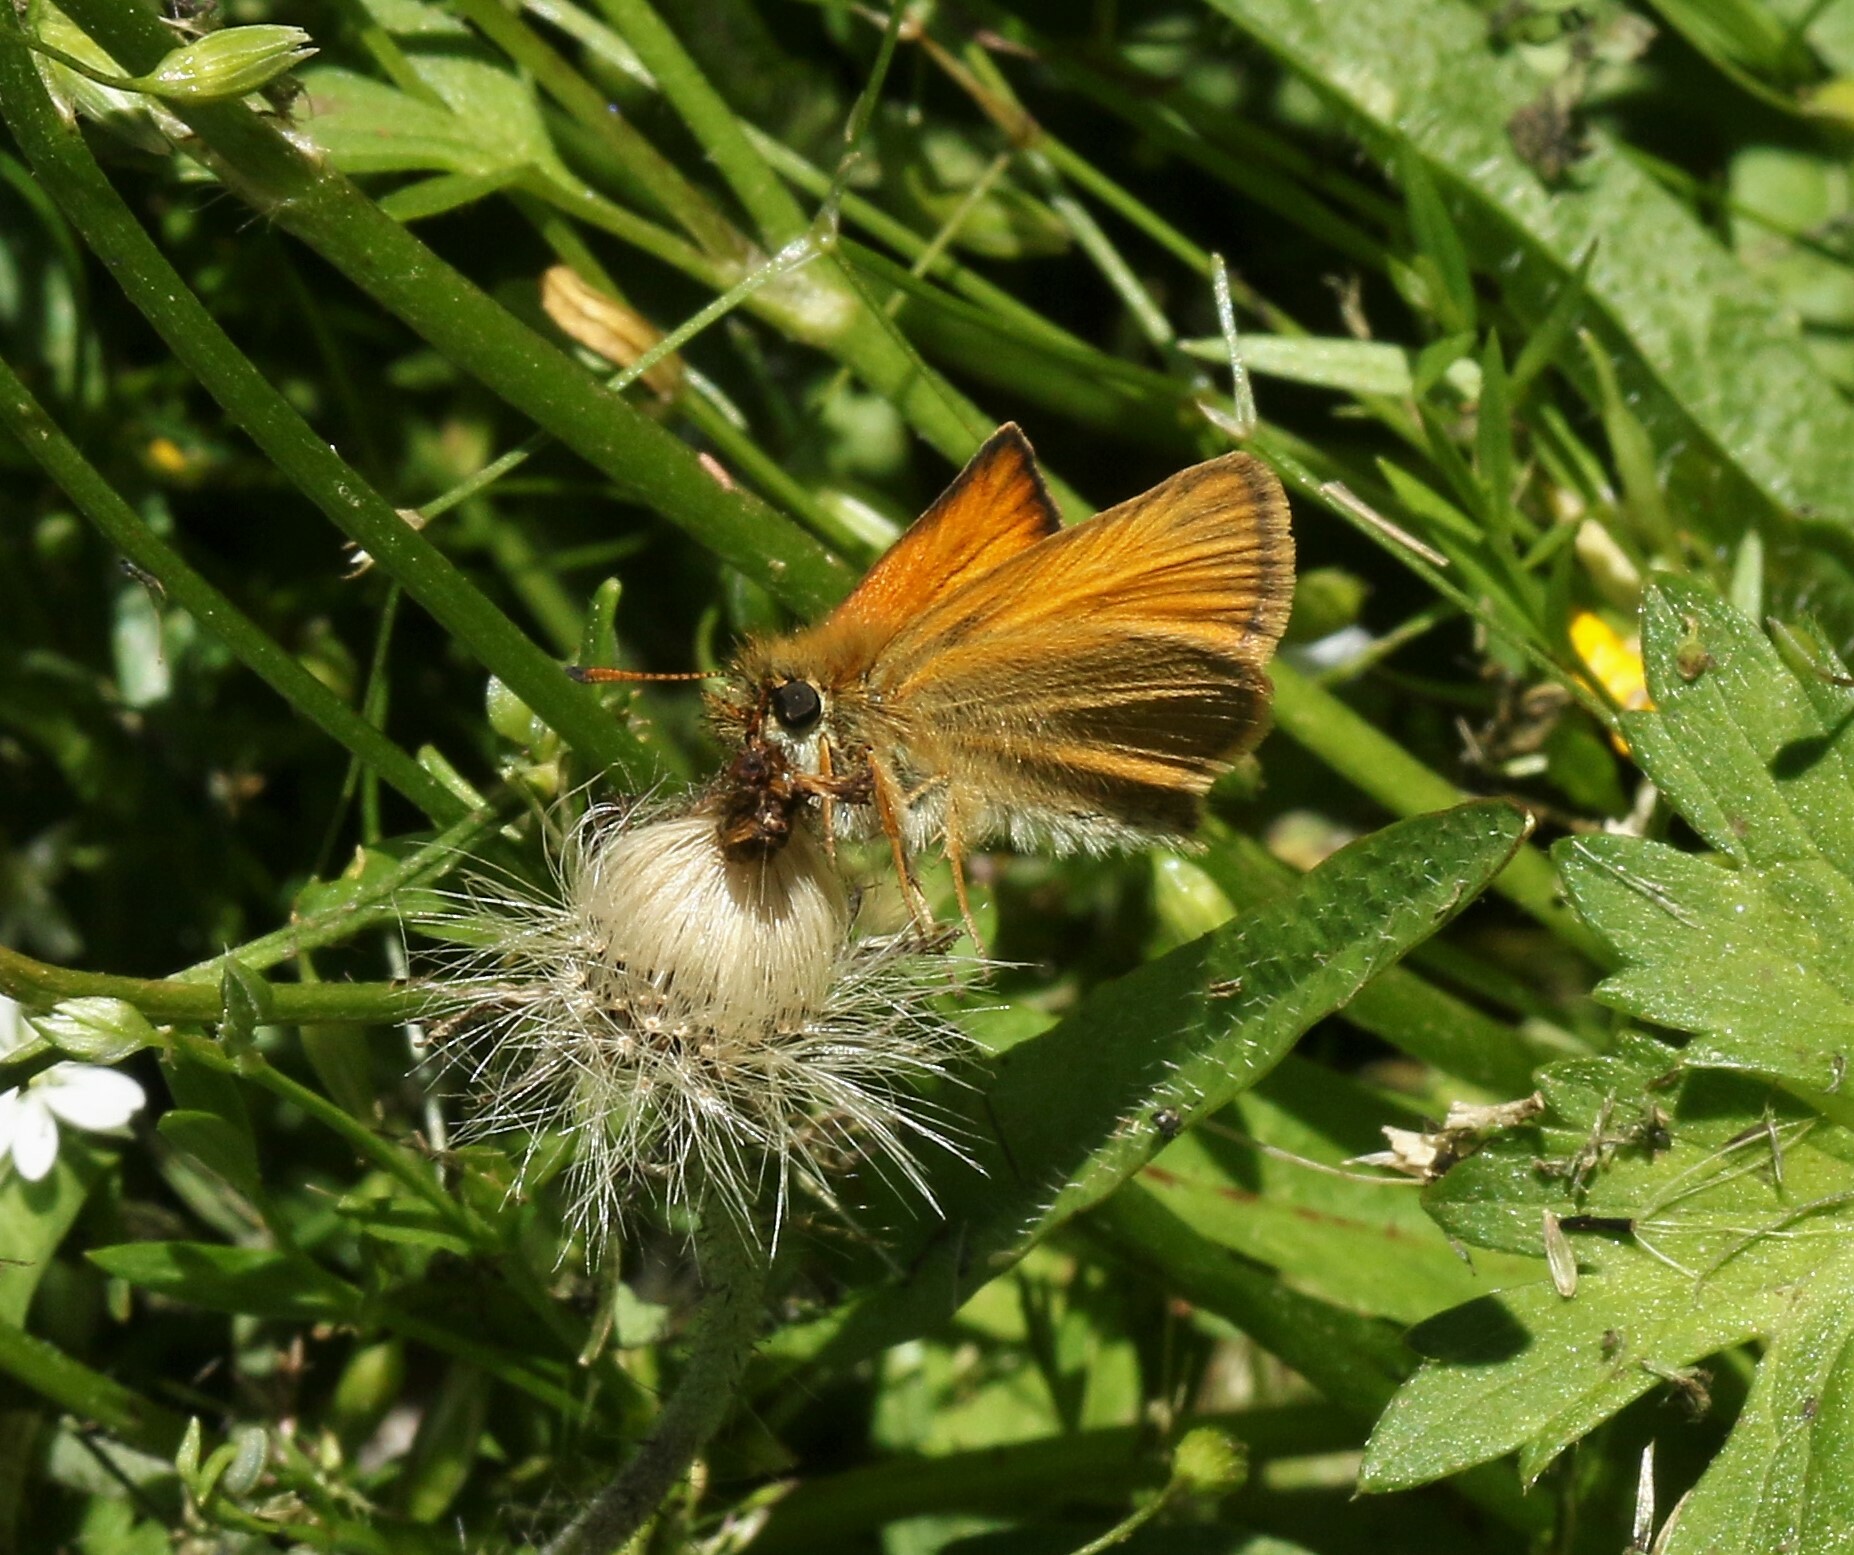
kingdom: Animalia
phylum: Arthropoda
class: Insecta
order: Lepidoptera
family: Hesperiidae
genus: Thymelicus
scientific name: Thymelicus lineola
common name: Essex skipper
